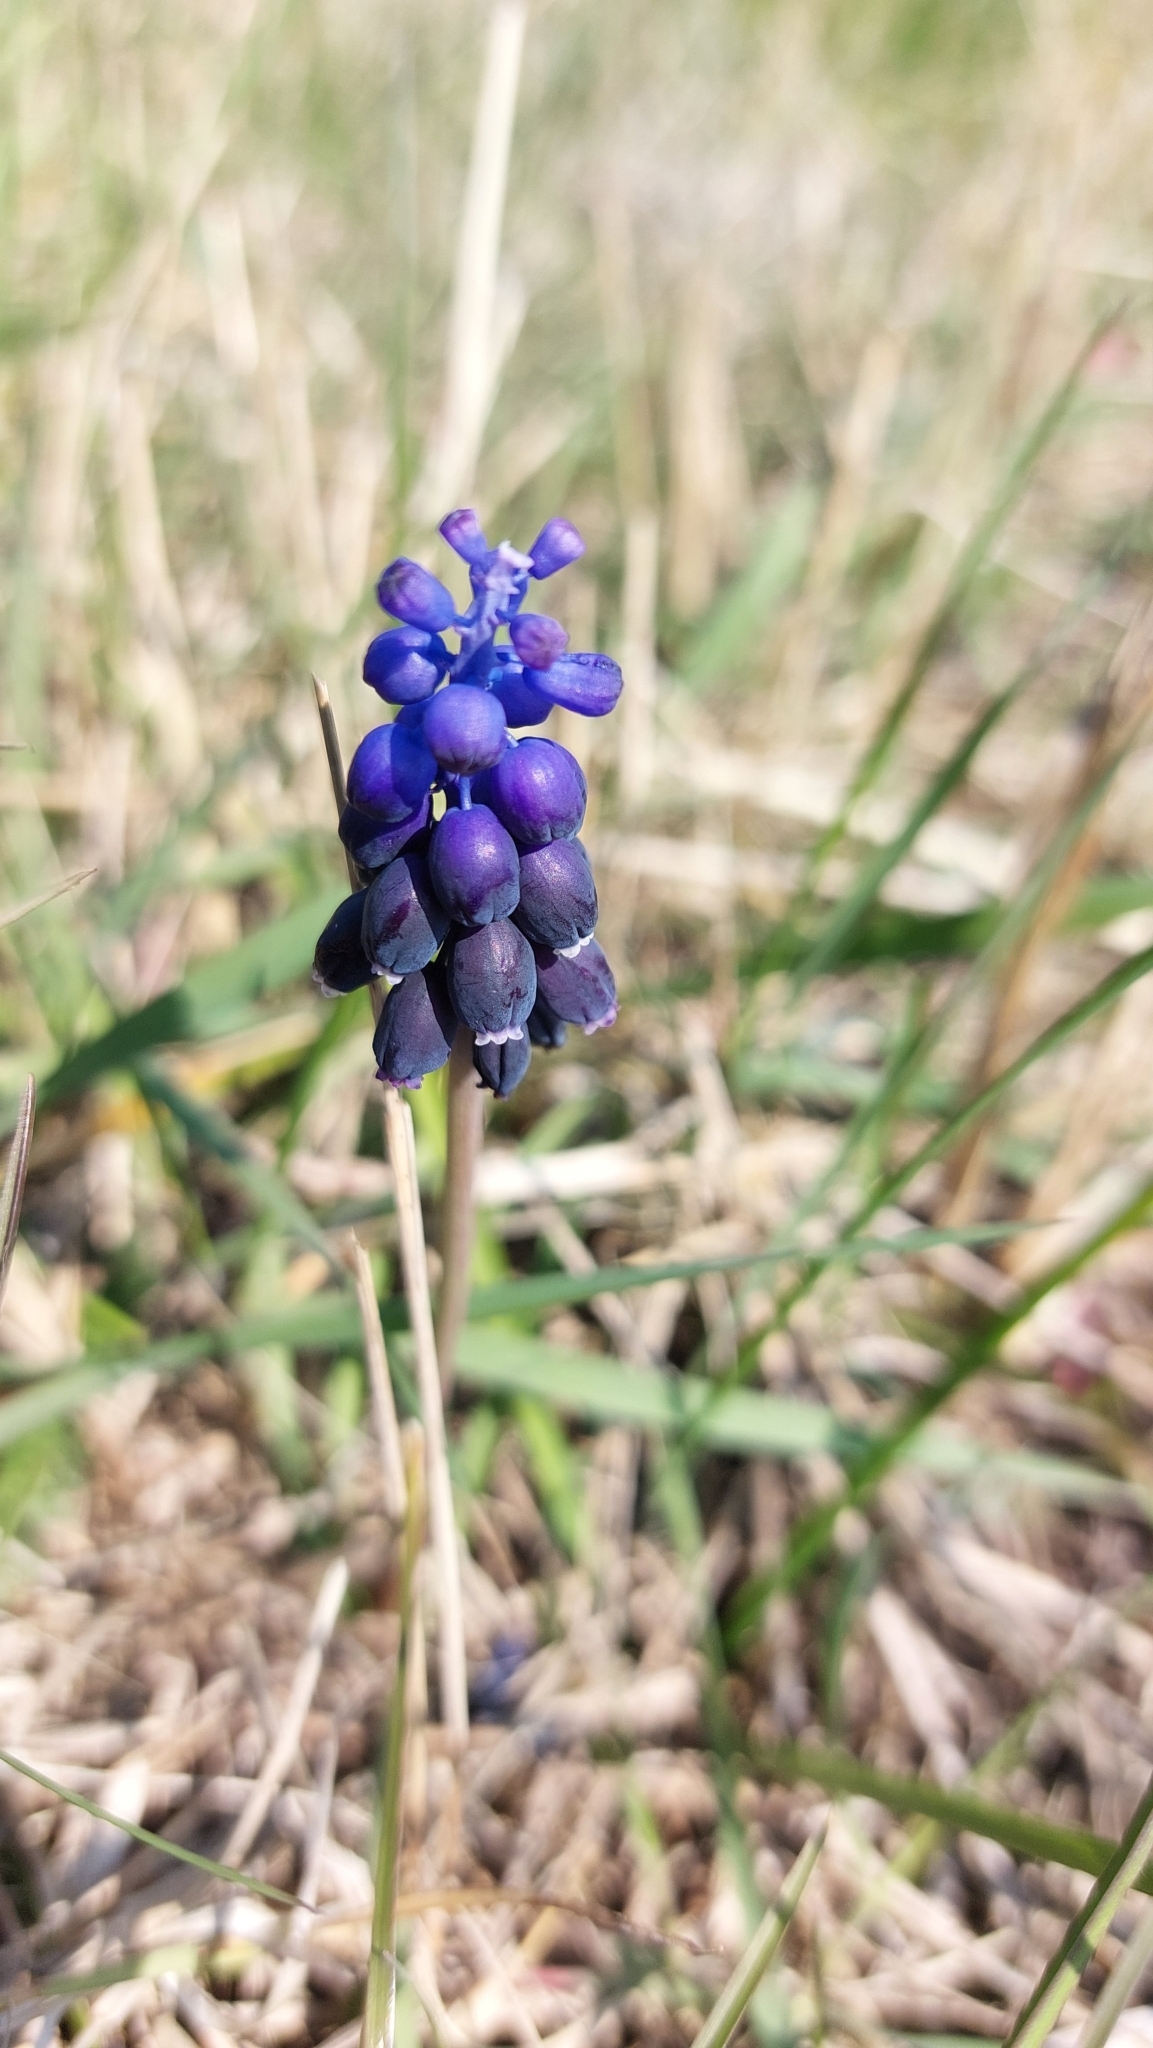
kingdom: Plantae
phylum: Tracheophyta
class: Liliopsida
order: Asparagales
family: Asparagaceae
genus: Muscari
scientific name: Muscari neglectum
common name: Grape-hyacinth
